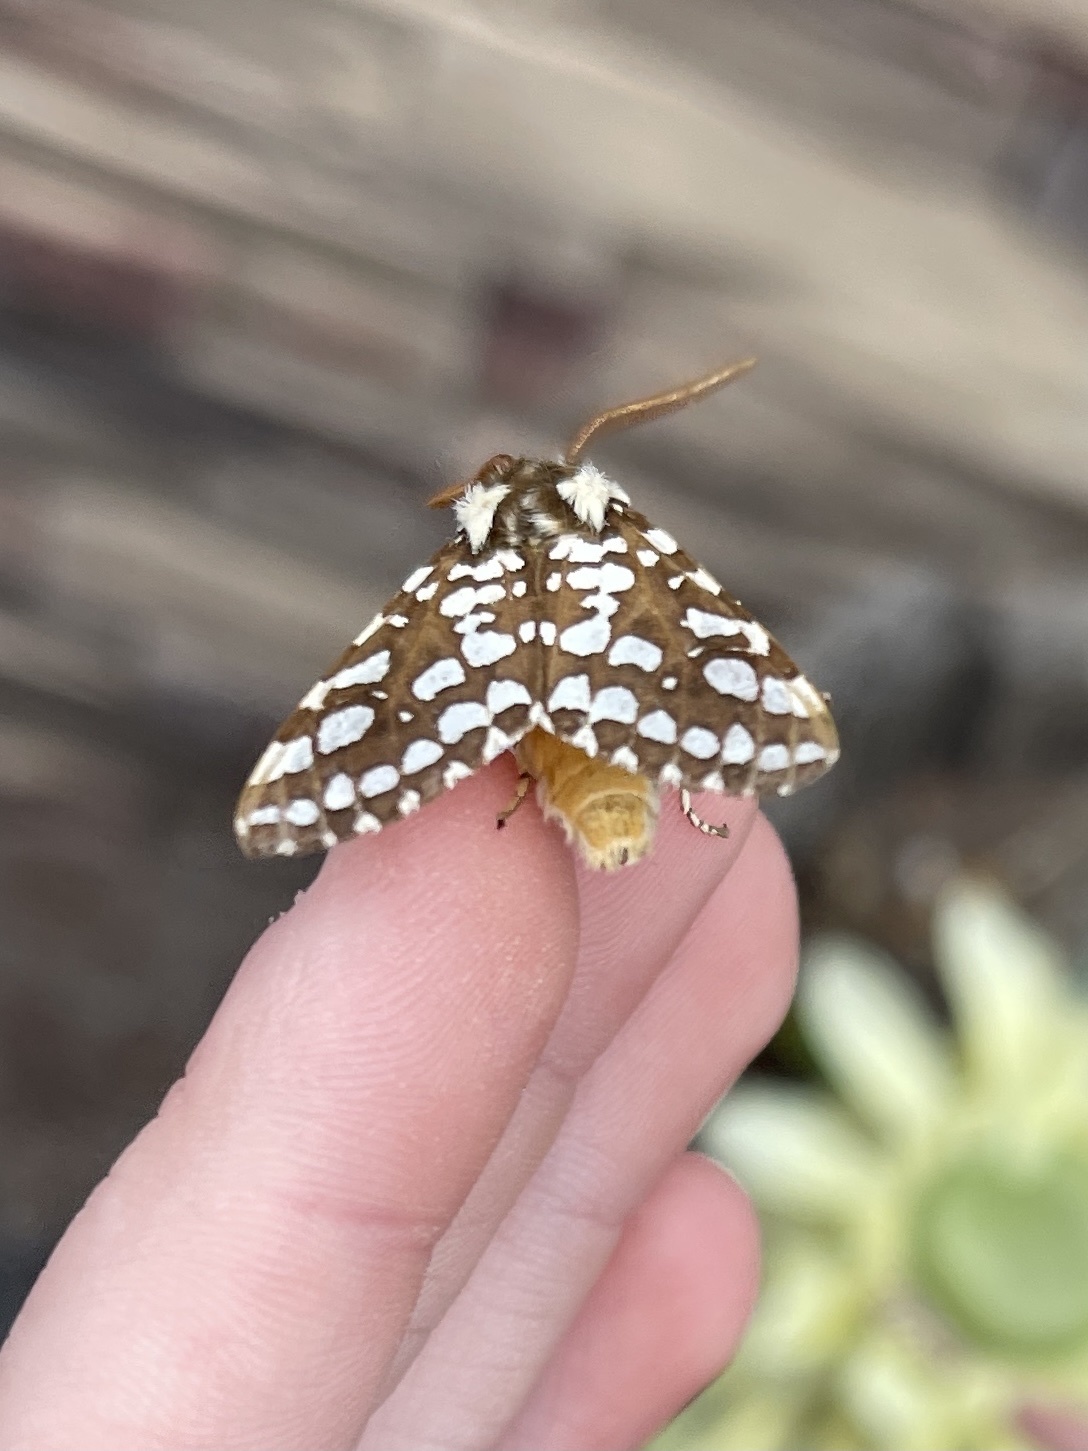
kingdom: Animalia
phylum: Arthropoda
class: Insecta
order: Lepidoptera
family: Erebidae
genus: Lophocampa
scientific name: Lophocampa ingens
